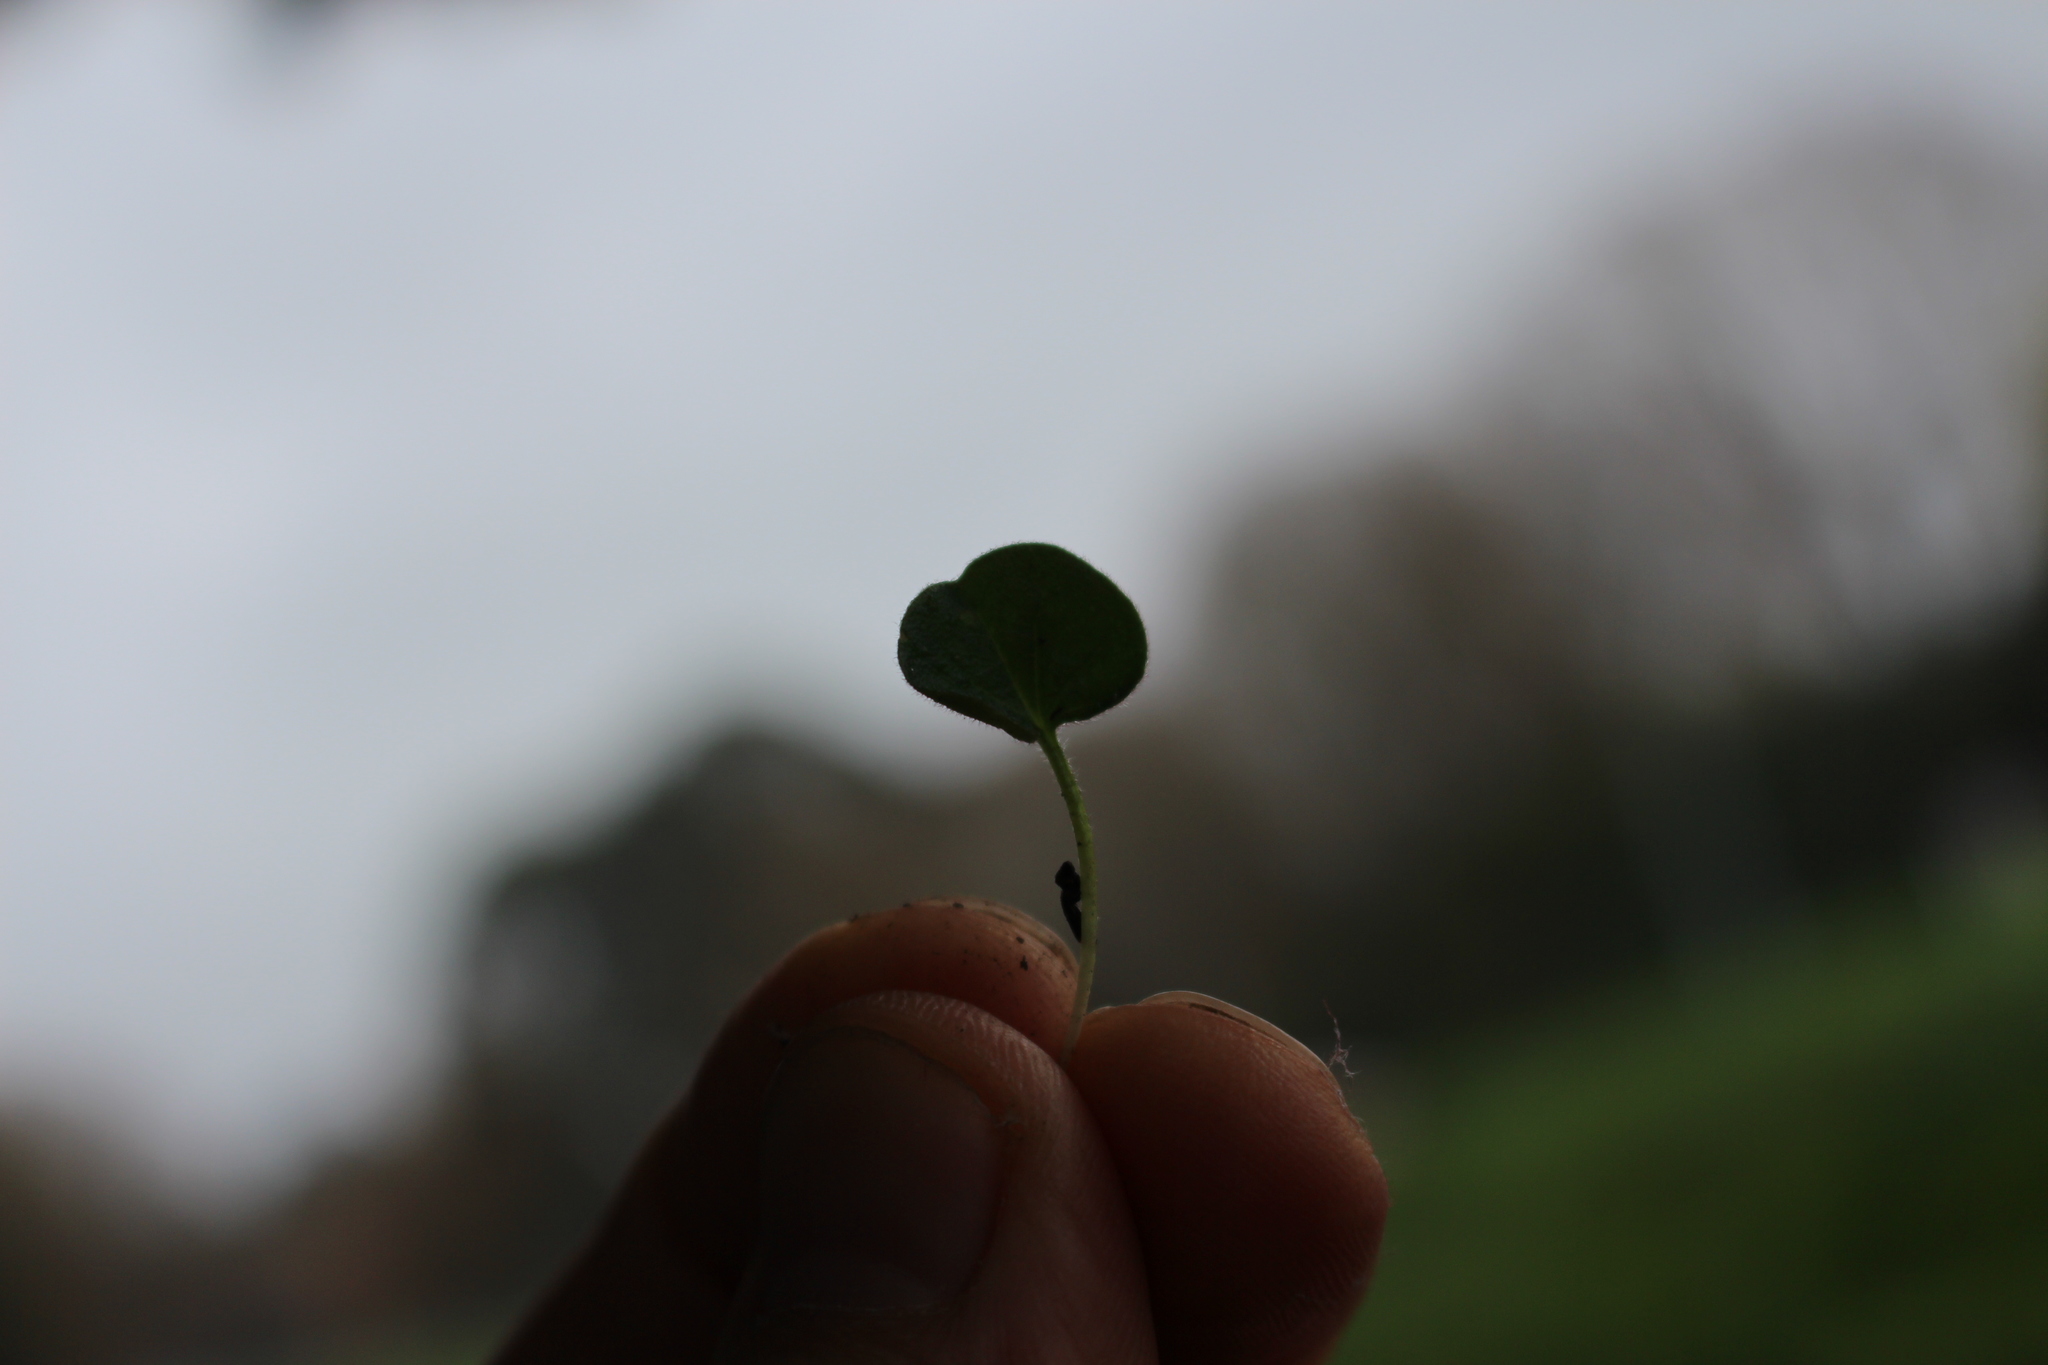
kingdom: Plantae
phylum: Tracheophyta
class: Magnoliopsida
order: Solanales
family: Convolvulaceae
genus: Dichondra
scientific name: Dichondra repens
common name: Kidneyweed
